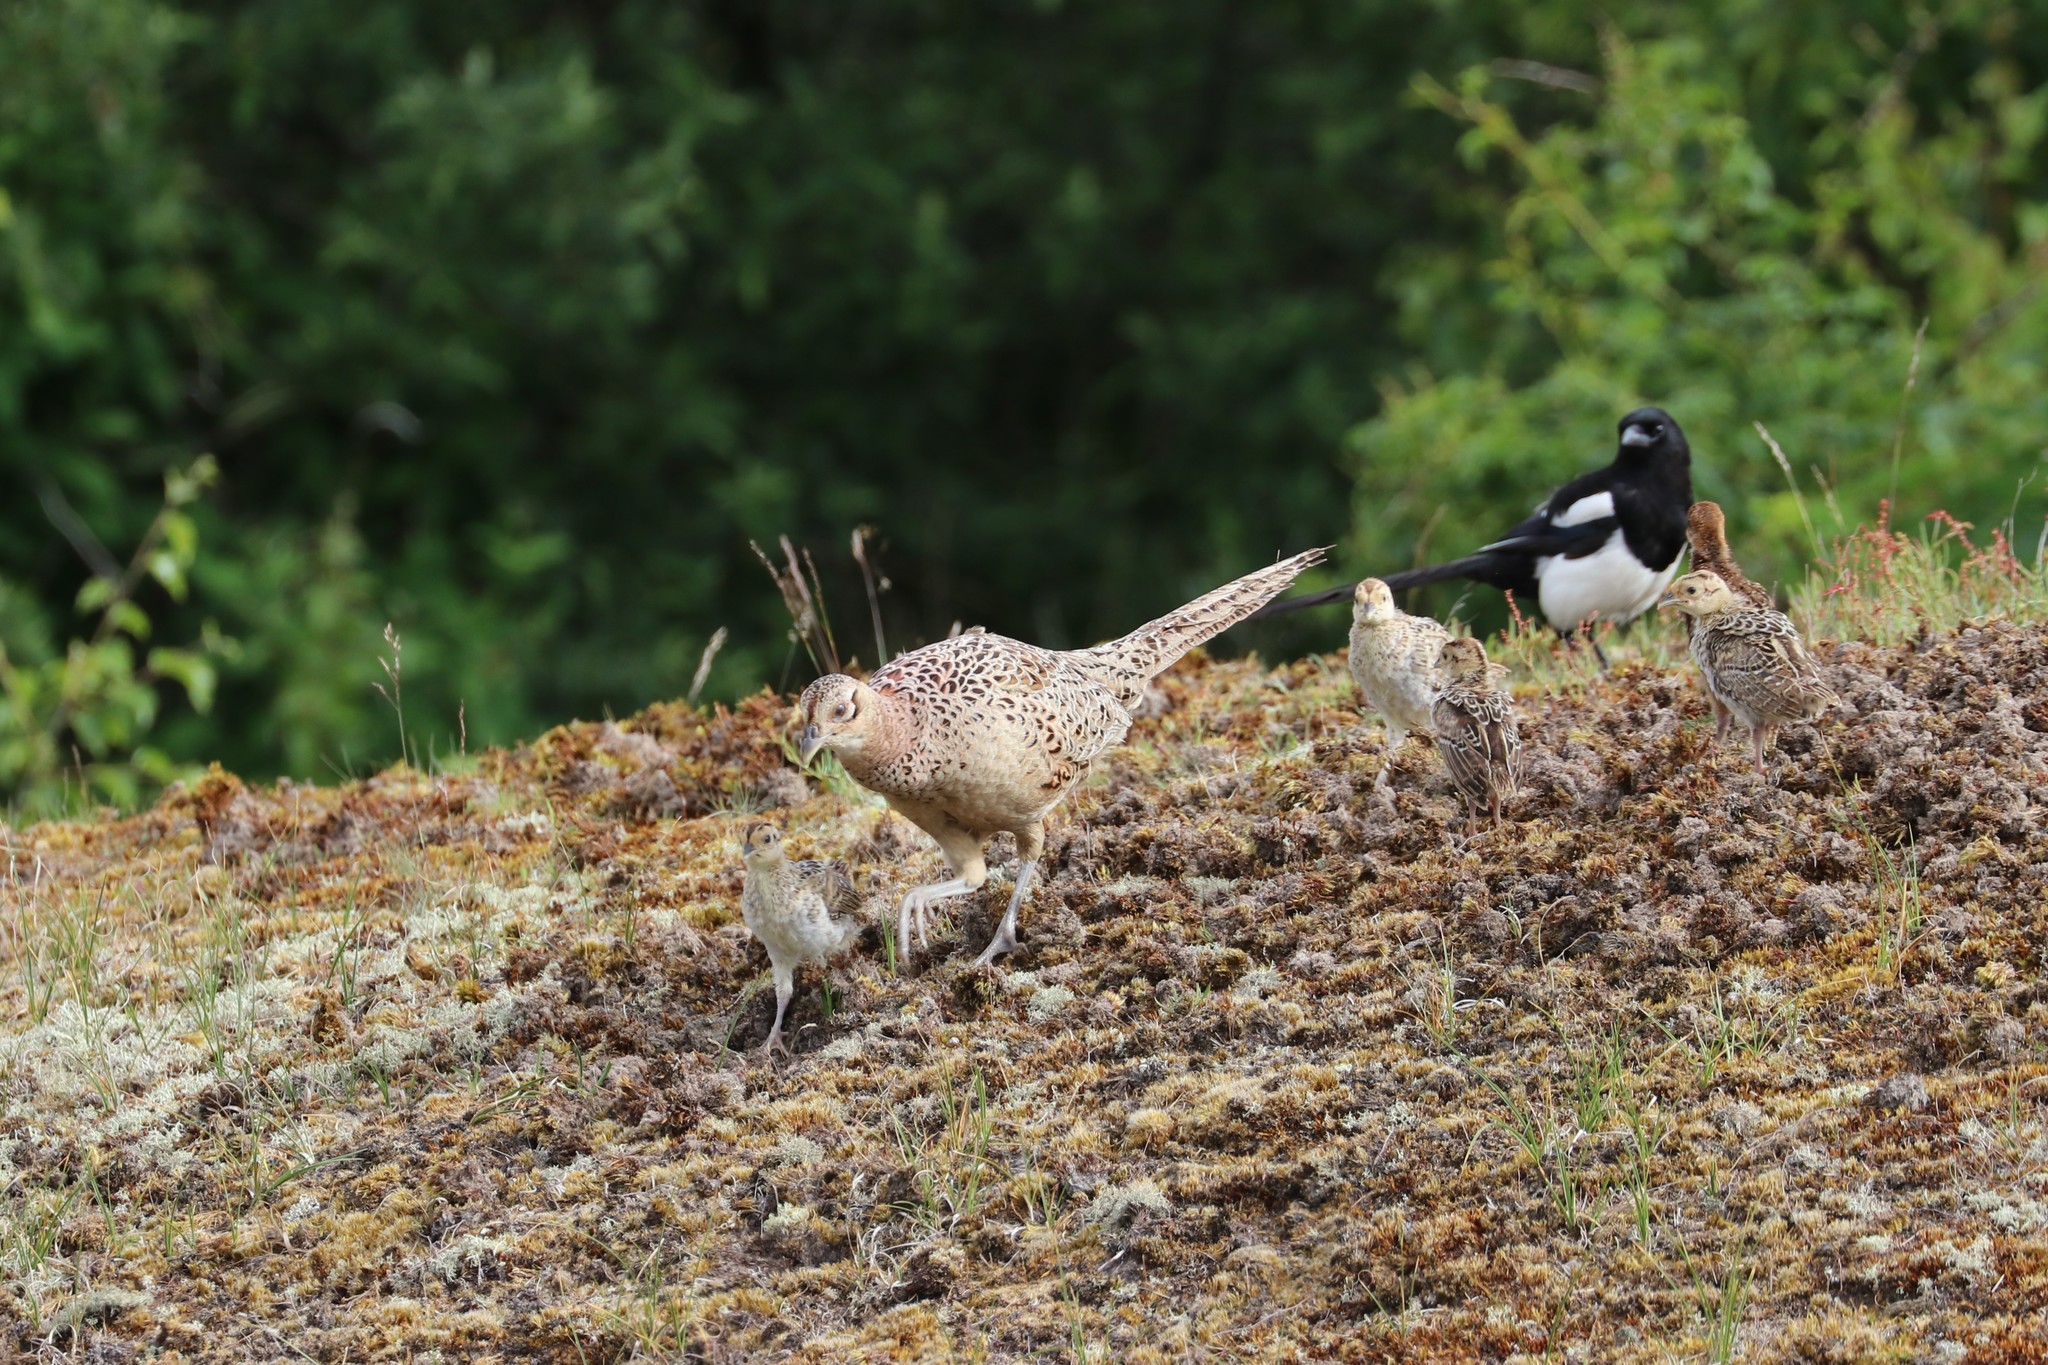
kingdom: Animalia
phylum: Chordata
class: Aves
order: Galliformes
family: Phasianidae
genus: Phasianus
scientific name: Phasianus colchicus
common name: Common pheasant
